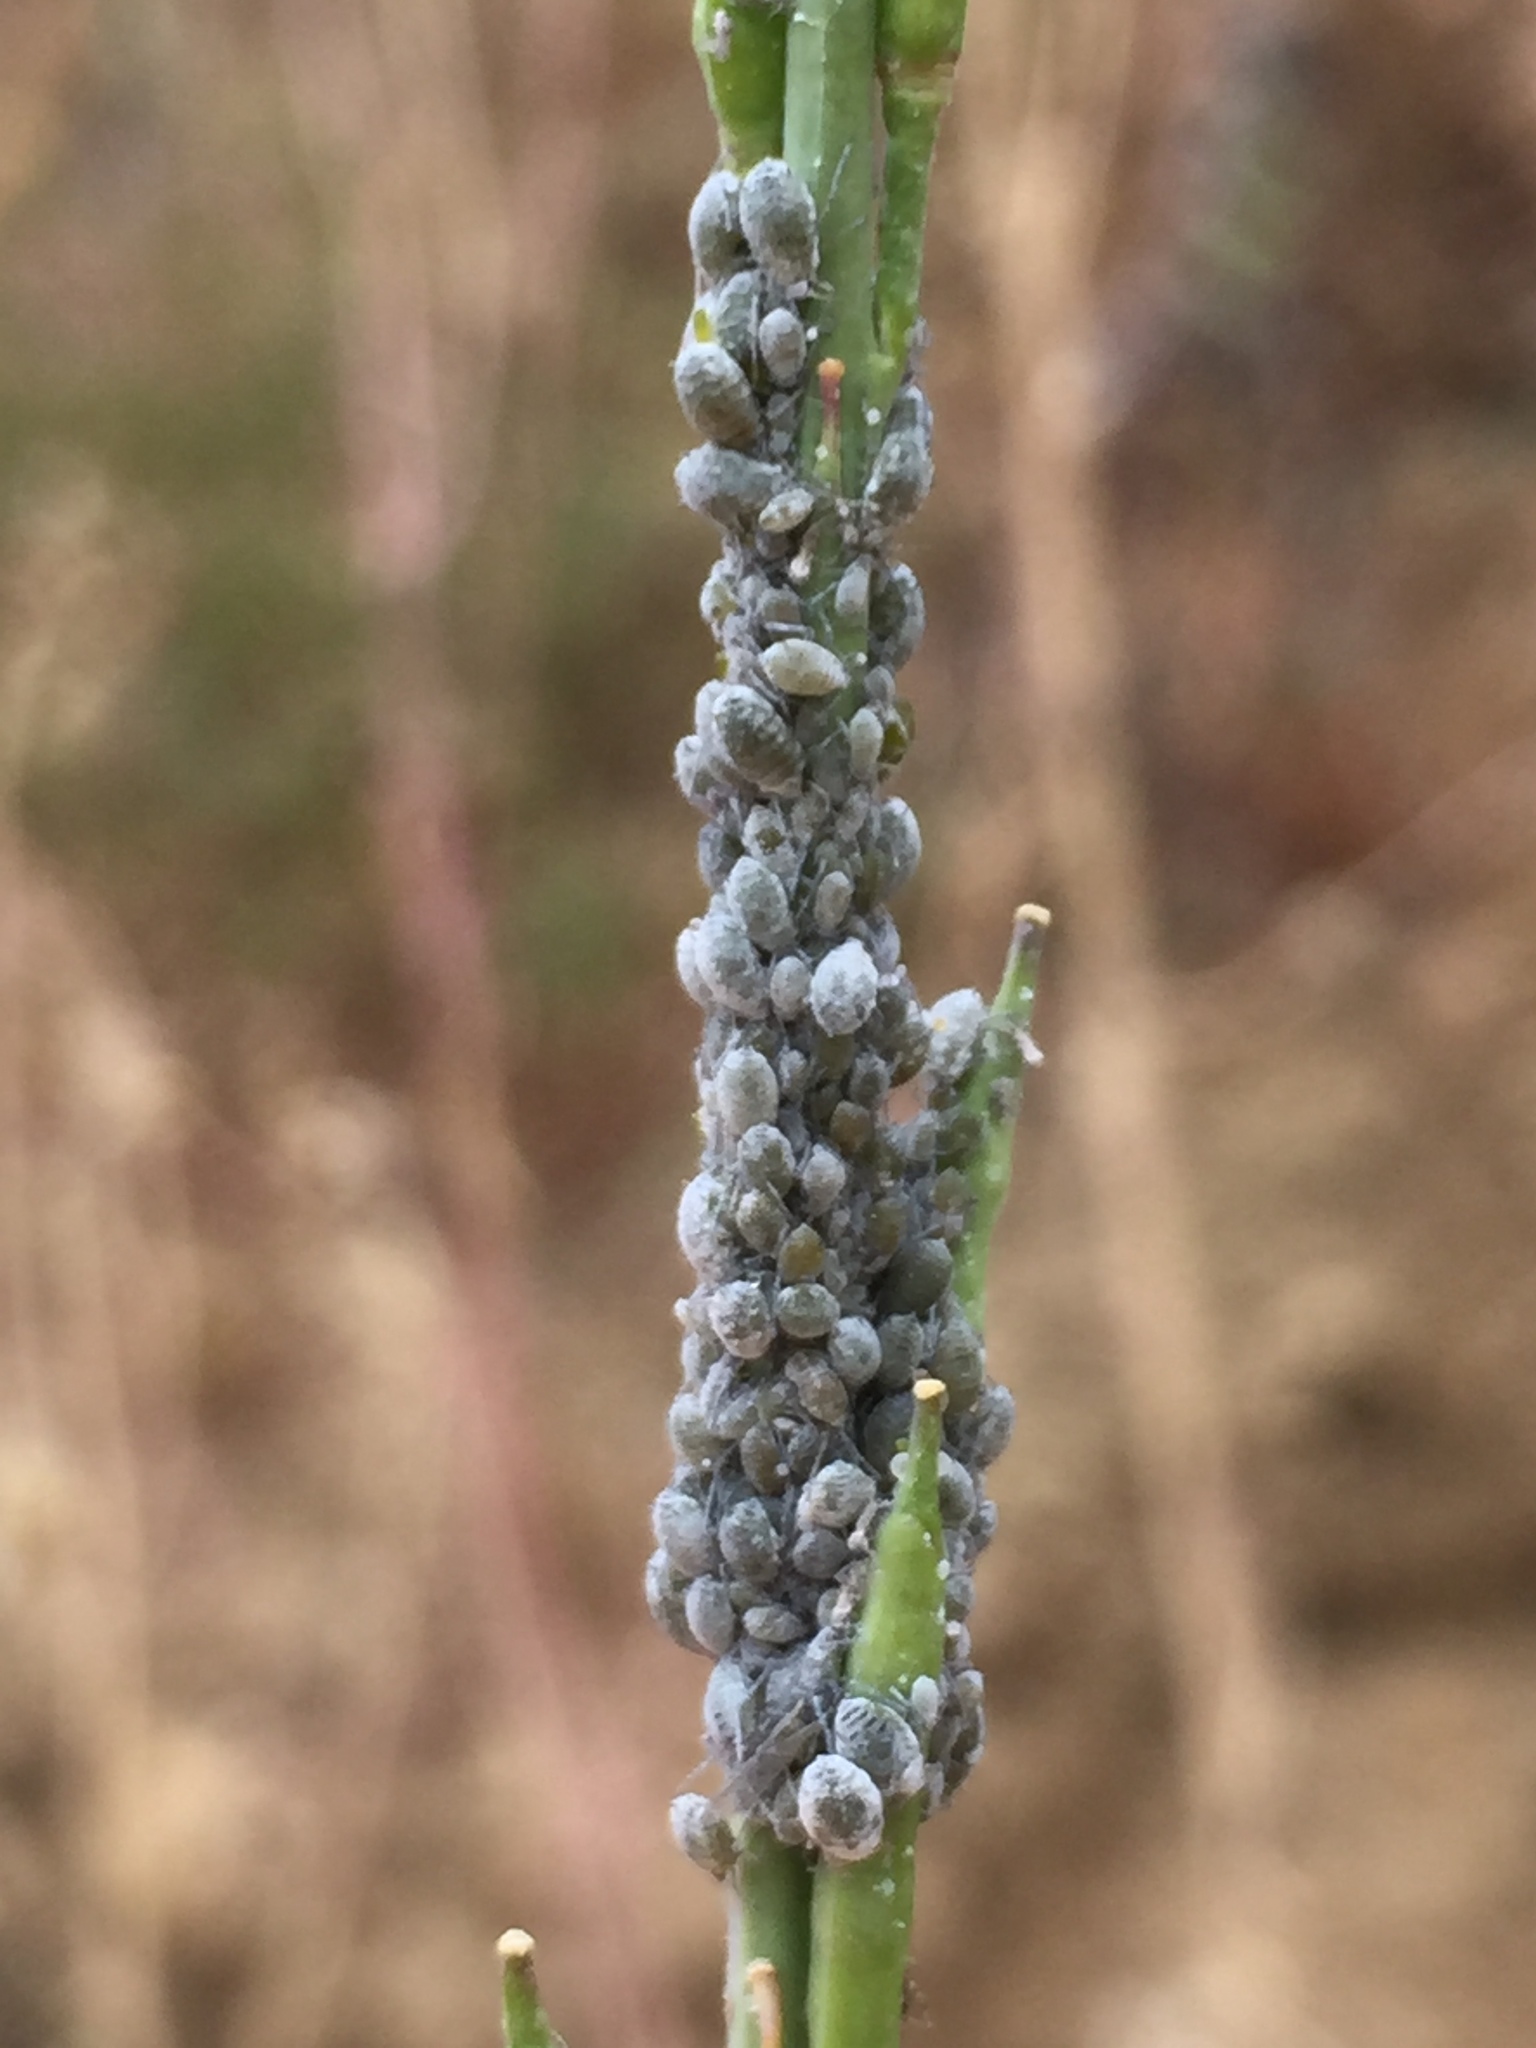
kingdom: Animalia
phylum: Arthropoda
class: Insecta
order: Hemiptera
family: Aphididae
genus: Brevicoryne
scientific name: Brevicoryne brassicae
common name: Cabbage aphid
